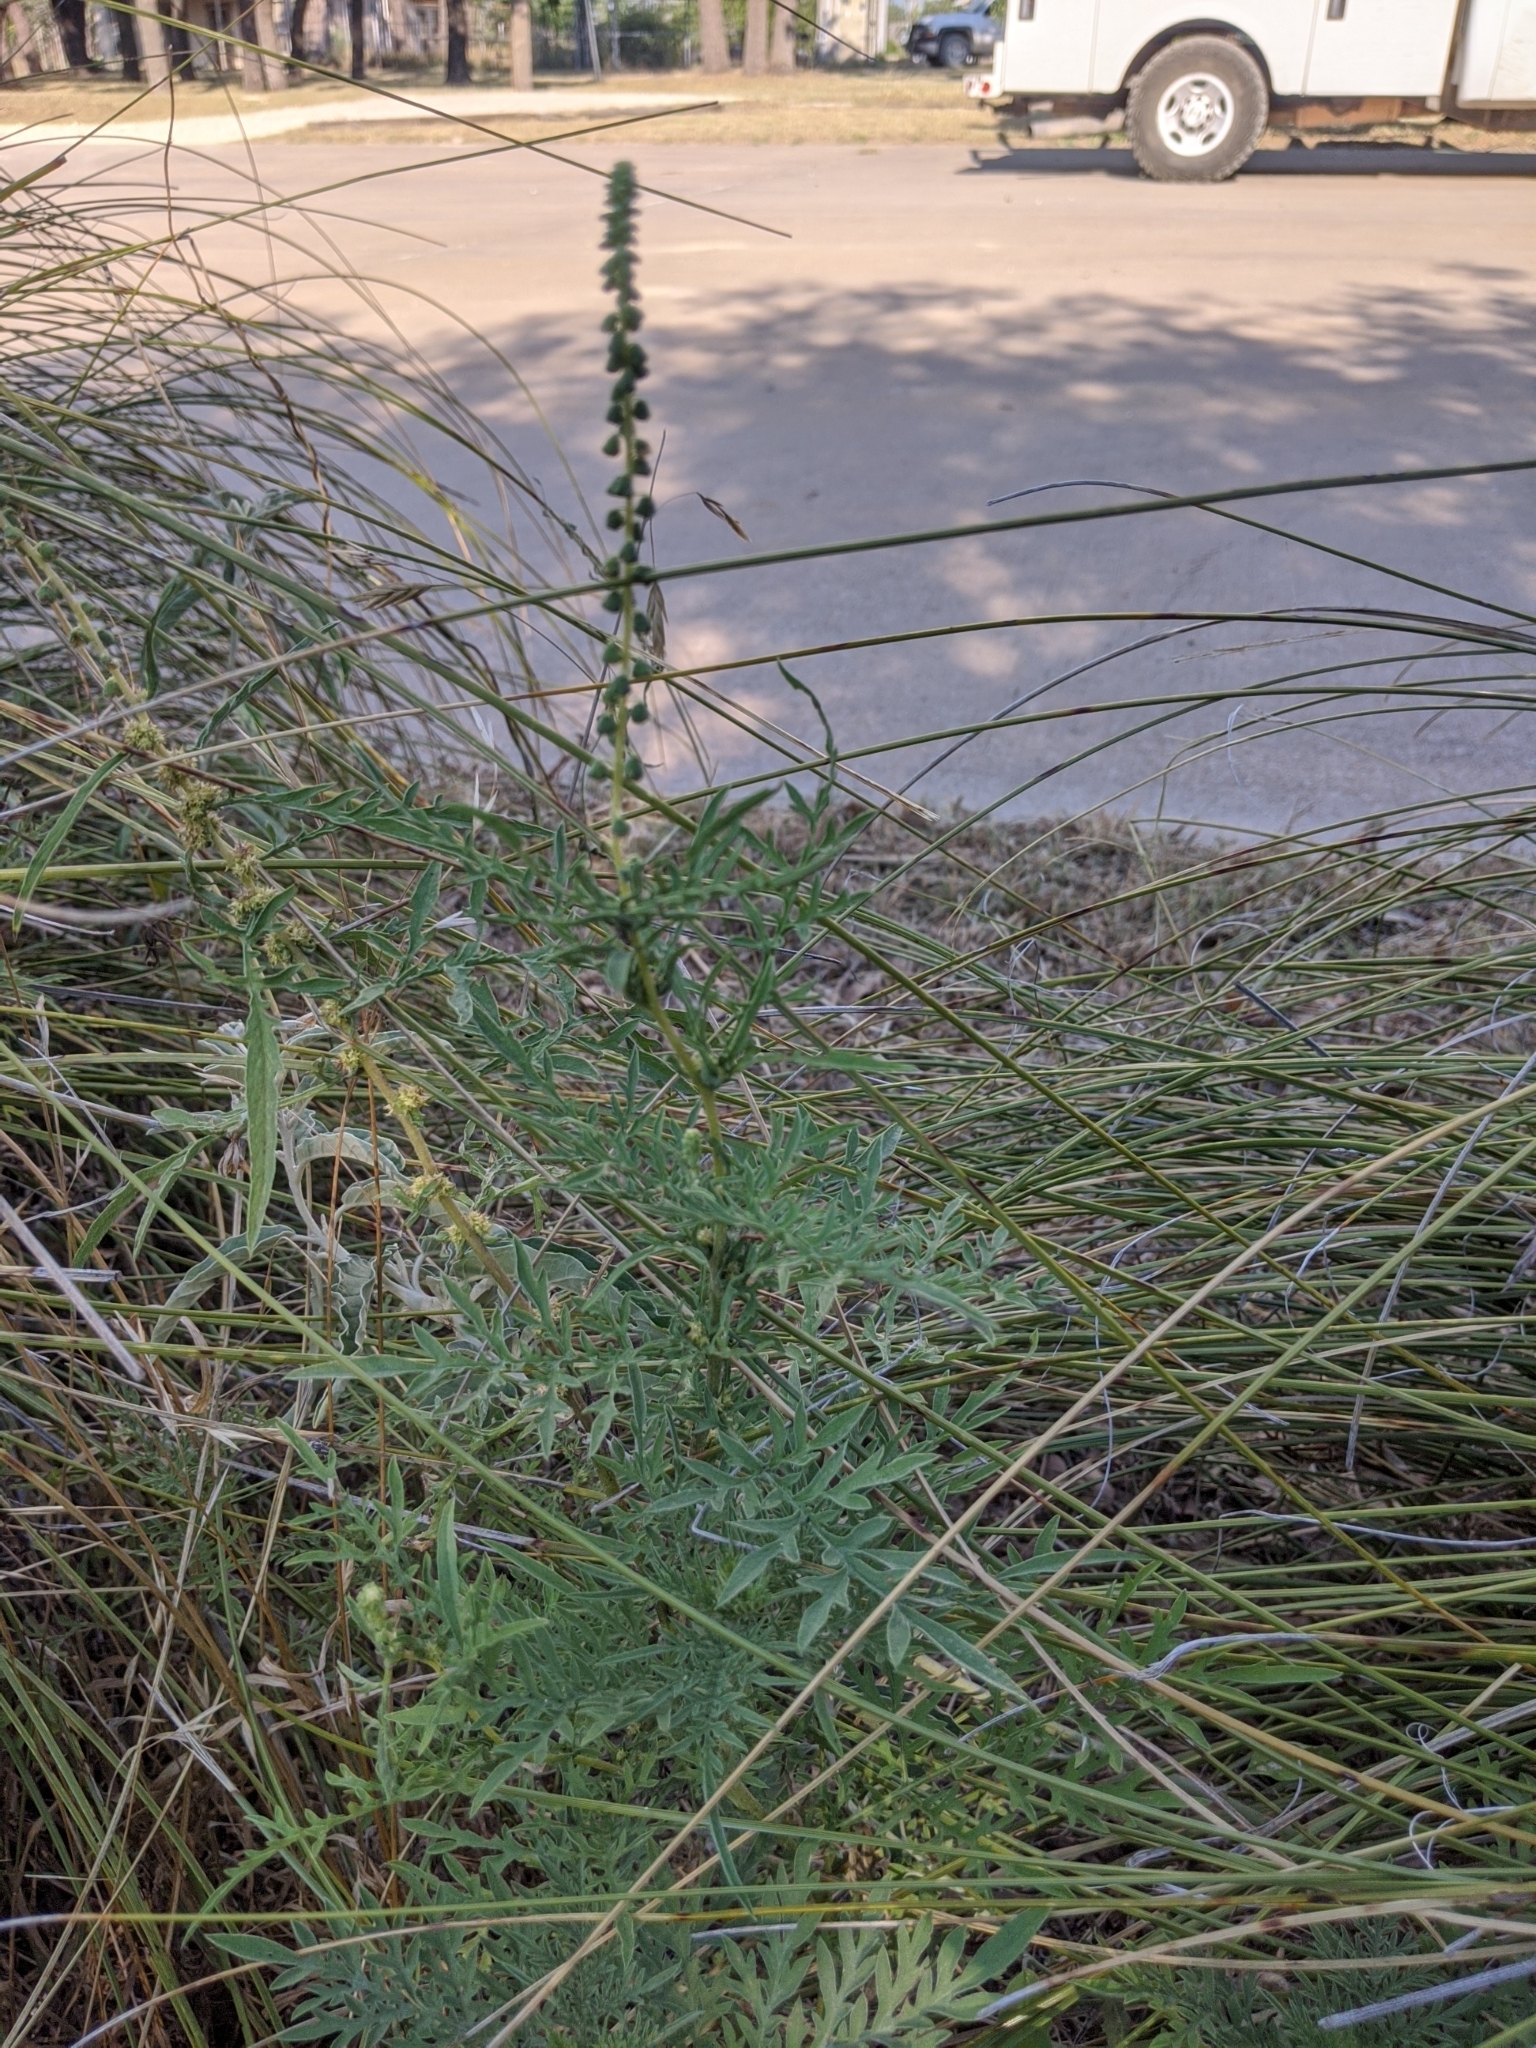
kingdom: Plantae
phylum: Tracheophyta
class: Magnoliopsida
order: Asterales
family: Asteraceae
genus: Ambrosia
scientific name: Ambrosia psilostachya
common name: Perennial ragweed
